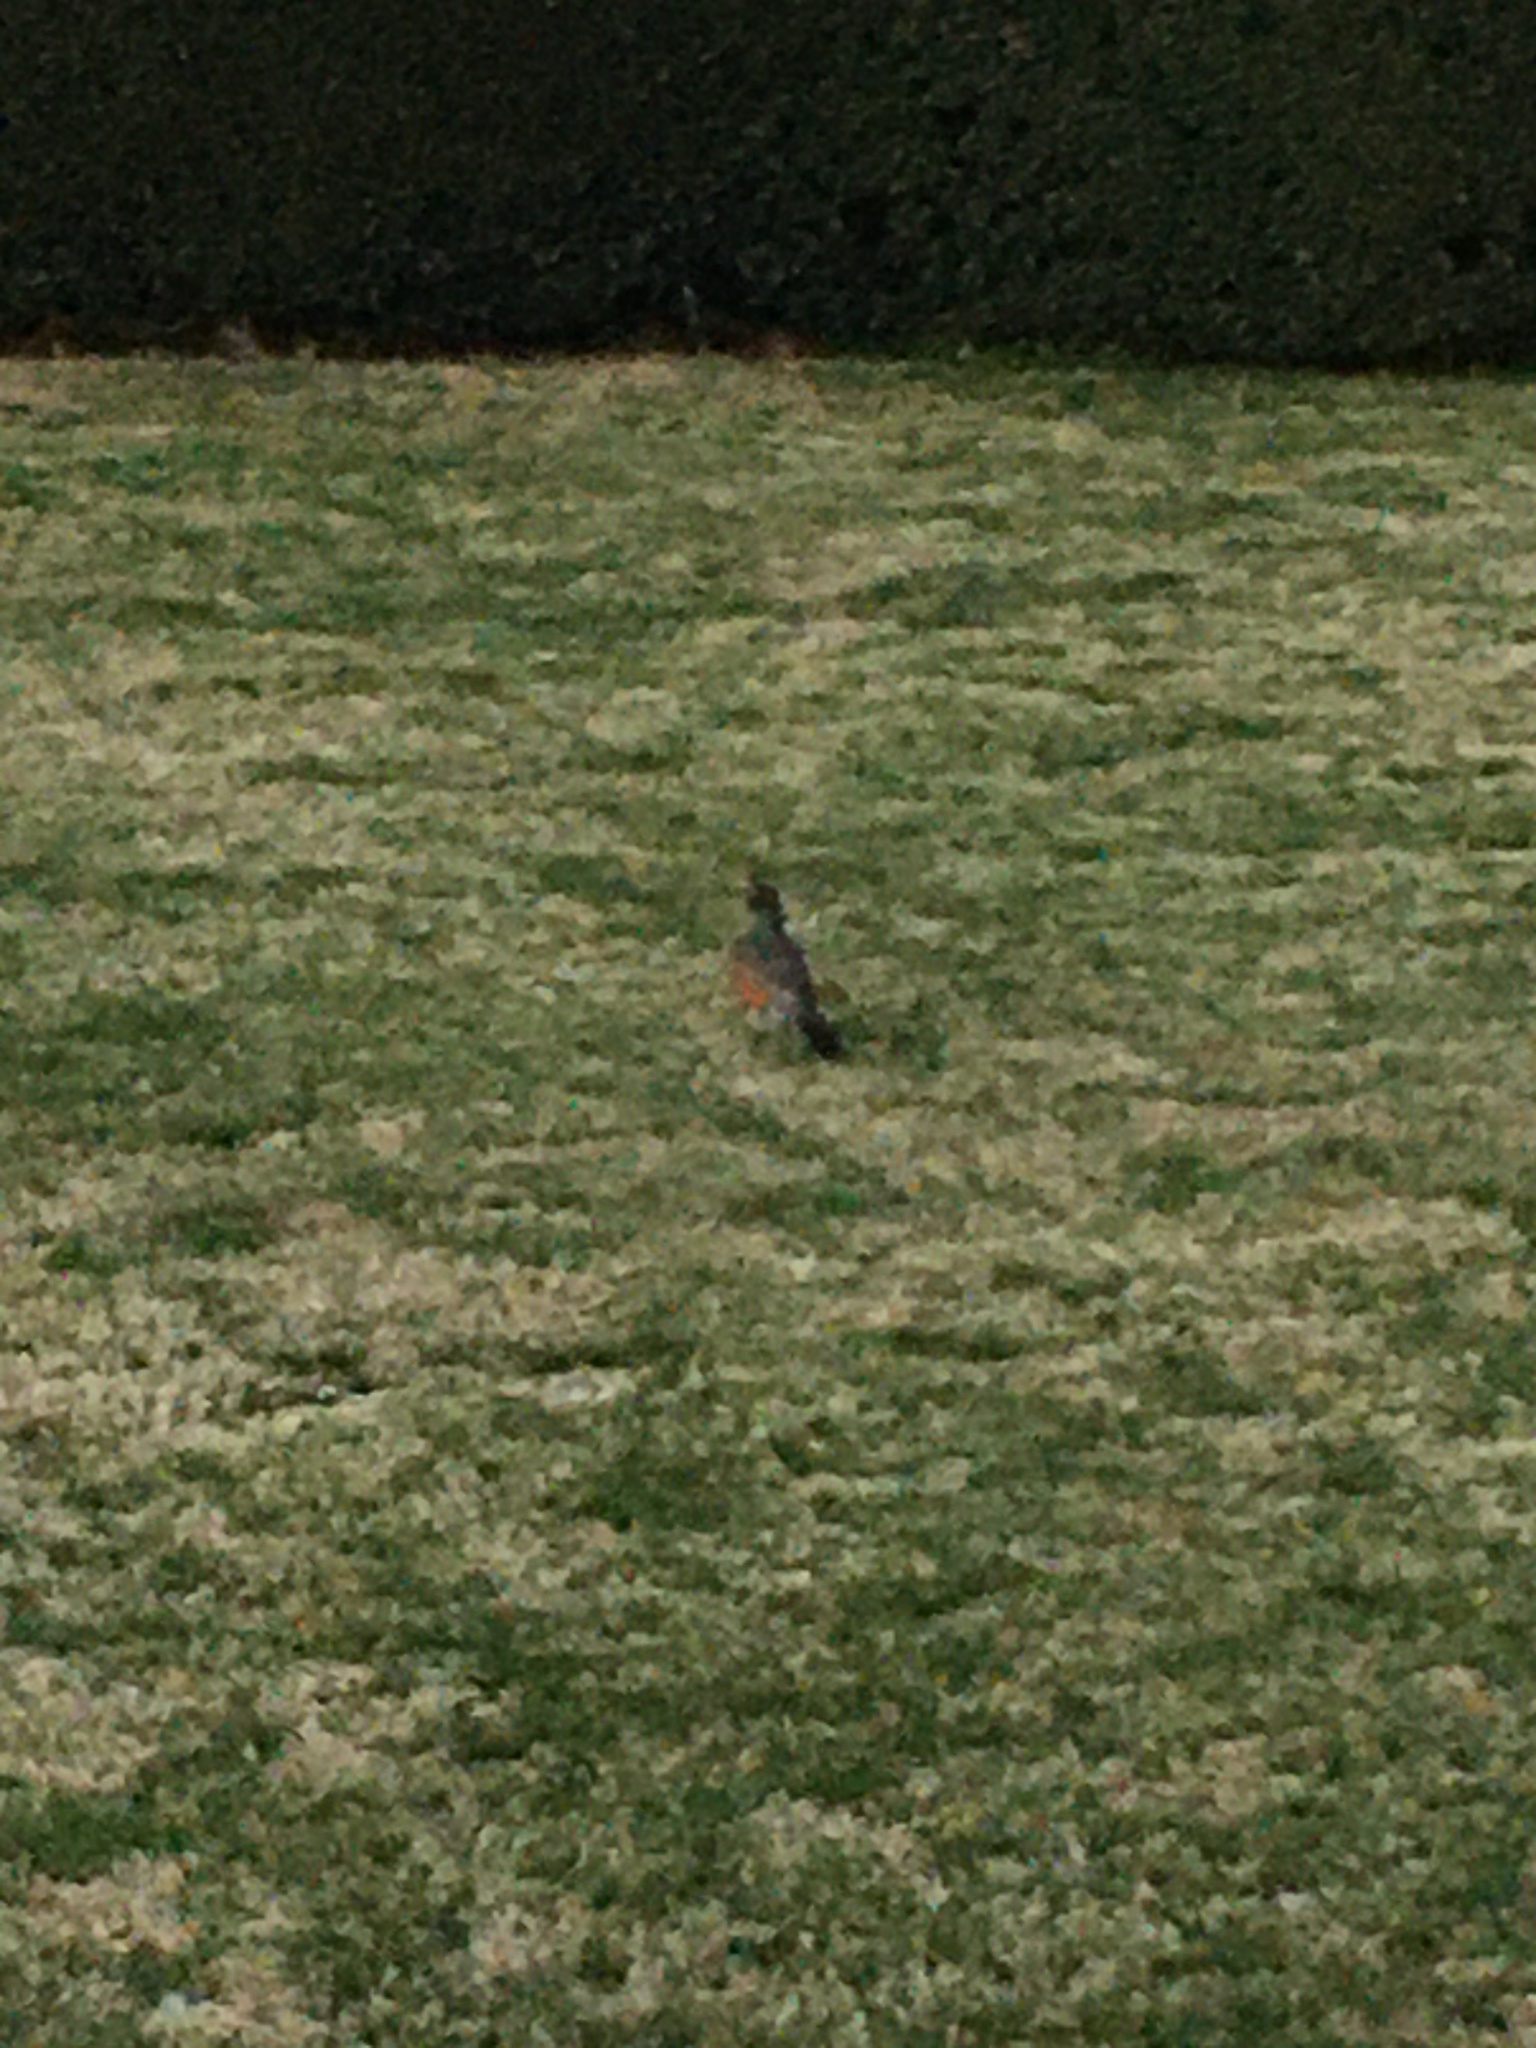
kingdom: Animalia
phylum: Chordata
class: Aves
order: Passeriformes
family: Turdidae
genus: Turdus
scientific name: Turdus migratorius
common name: American robin
